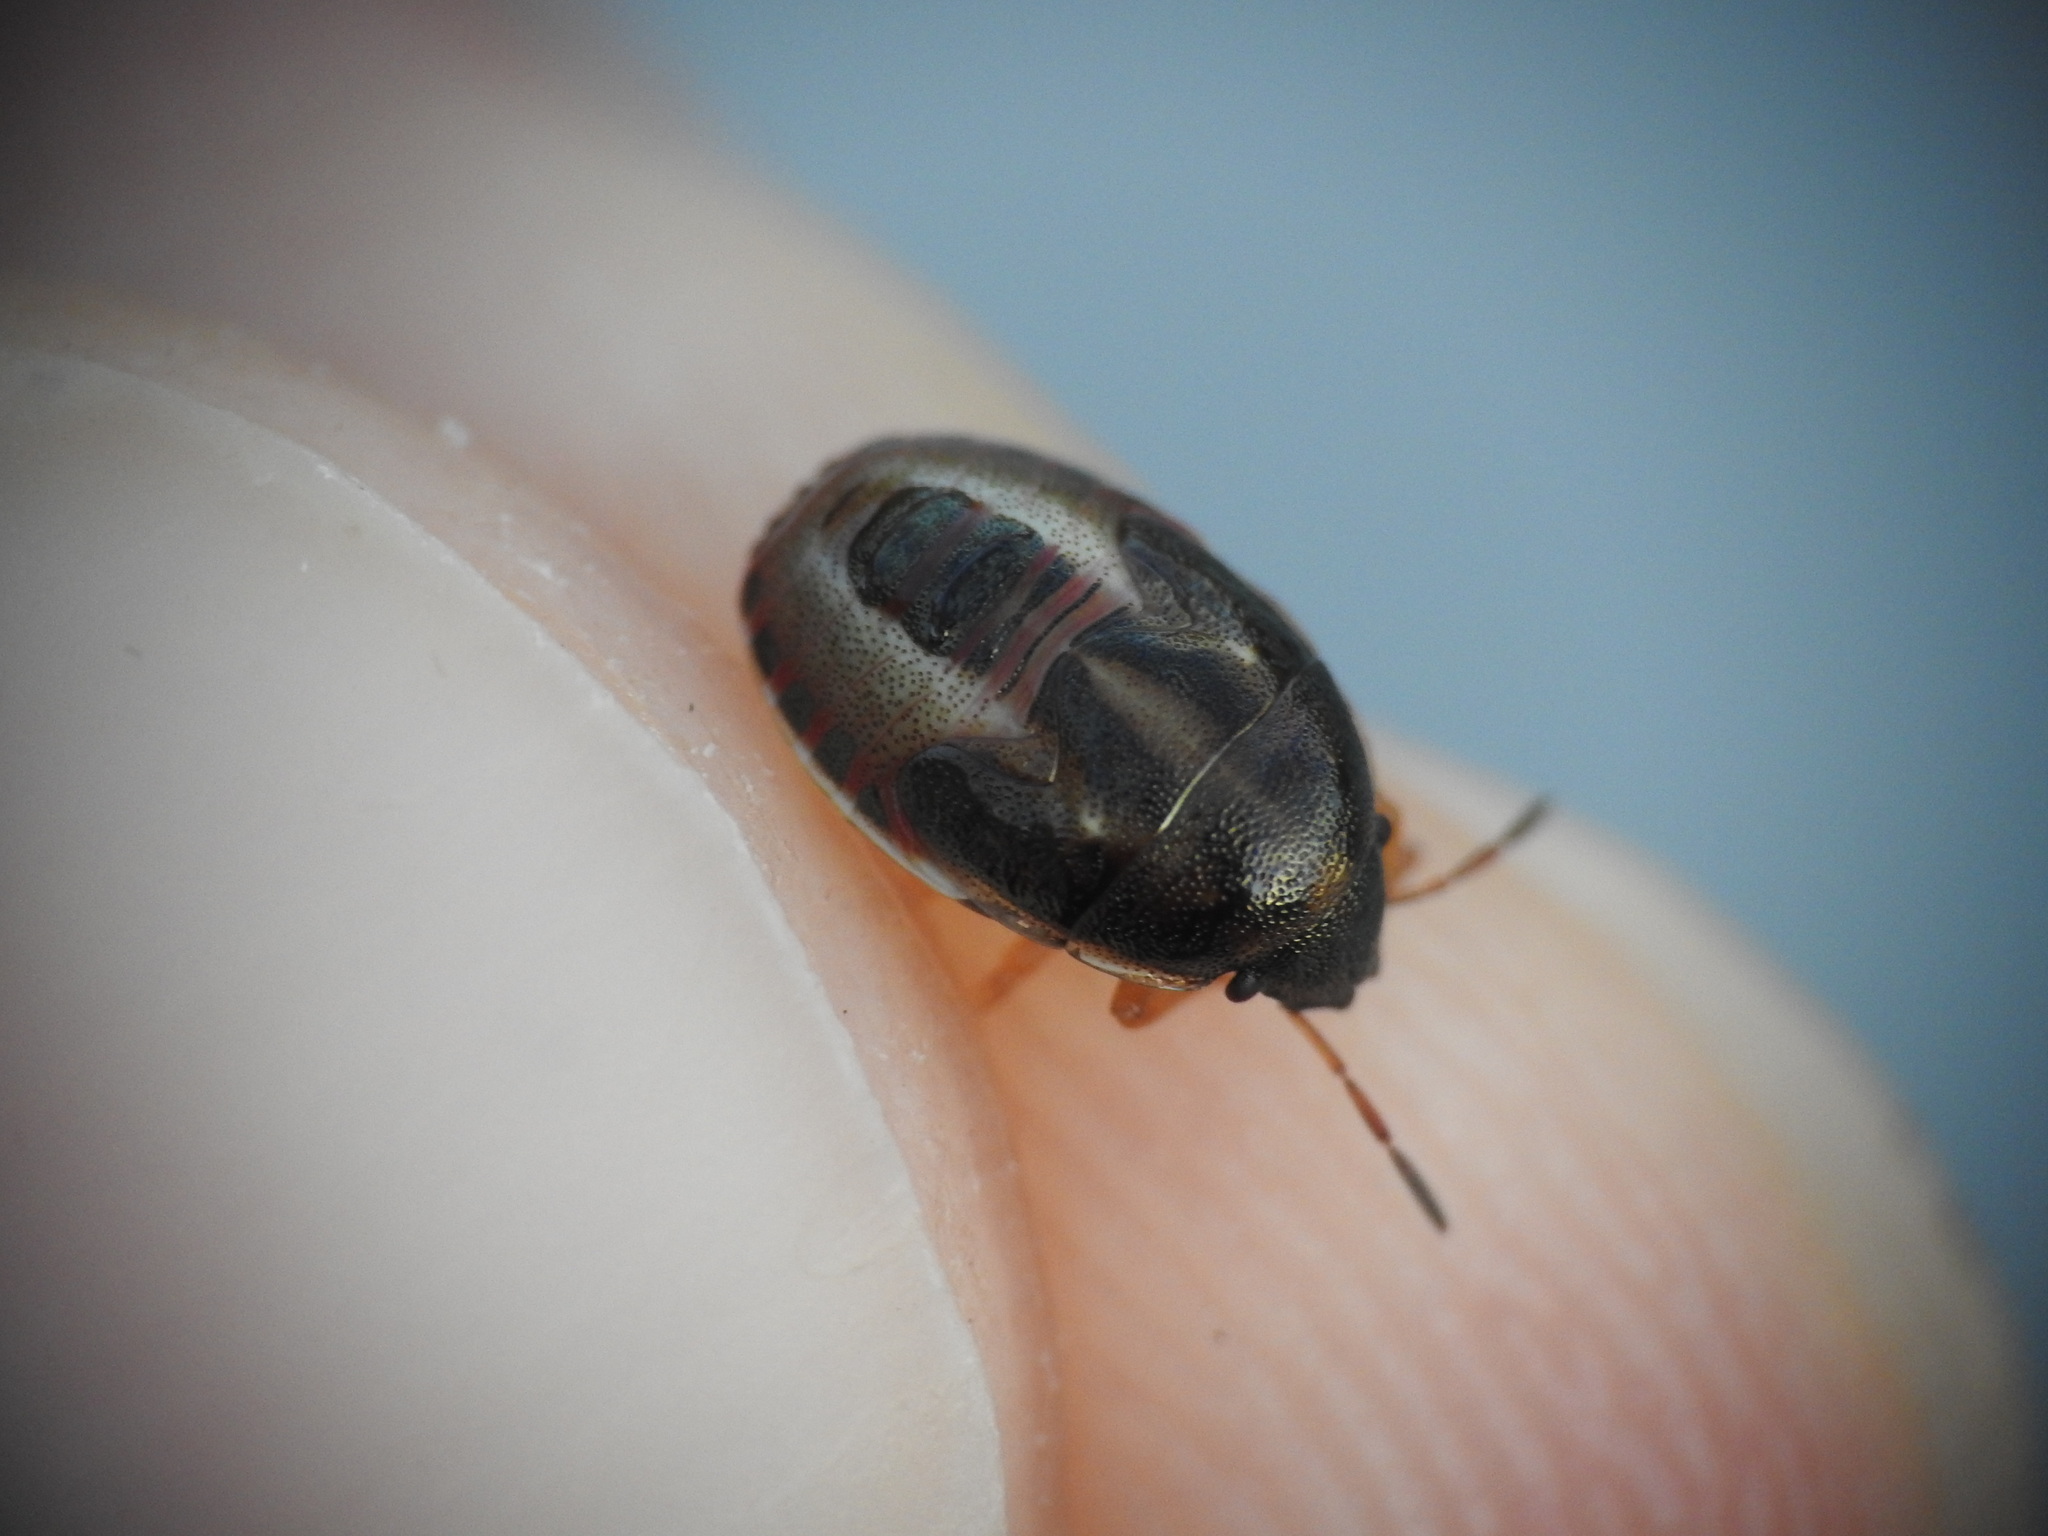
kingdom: Animalia
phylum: Arthropoda
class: Insecta
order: Hemiptera
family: Pentatomidae
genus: Neottiglossa
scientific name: Neottiglossa bifida
